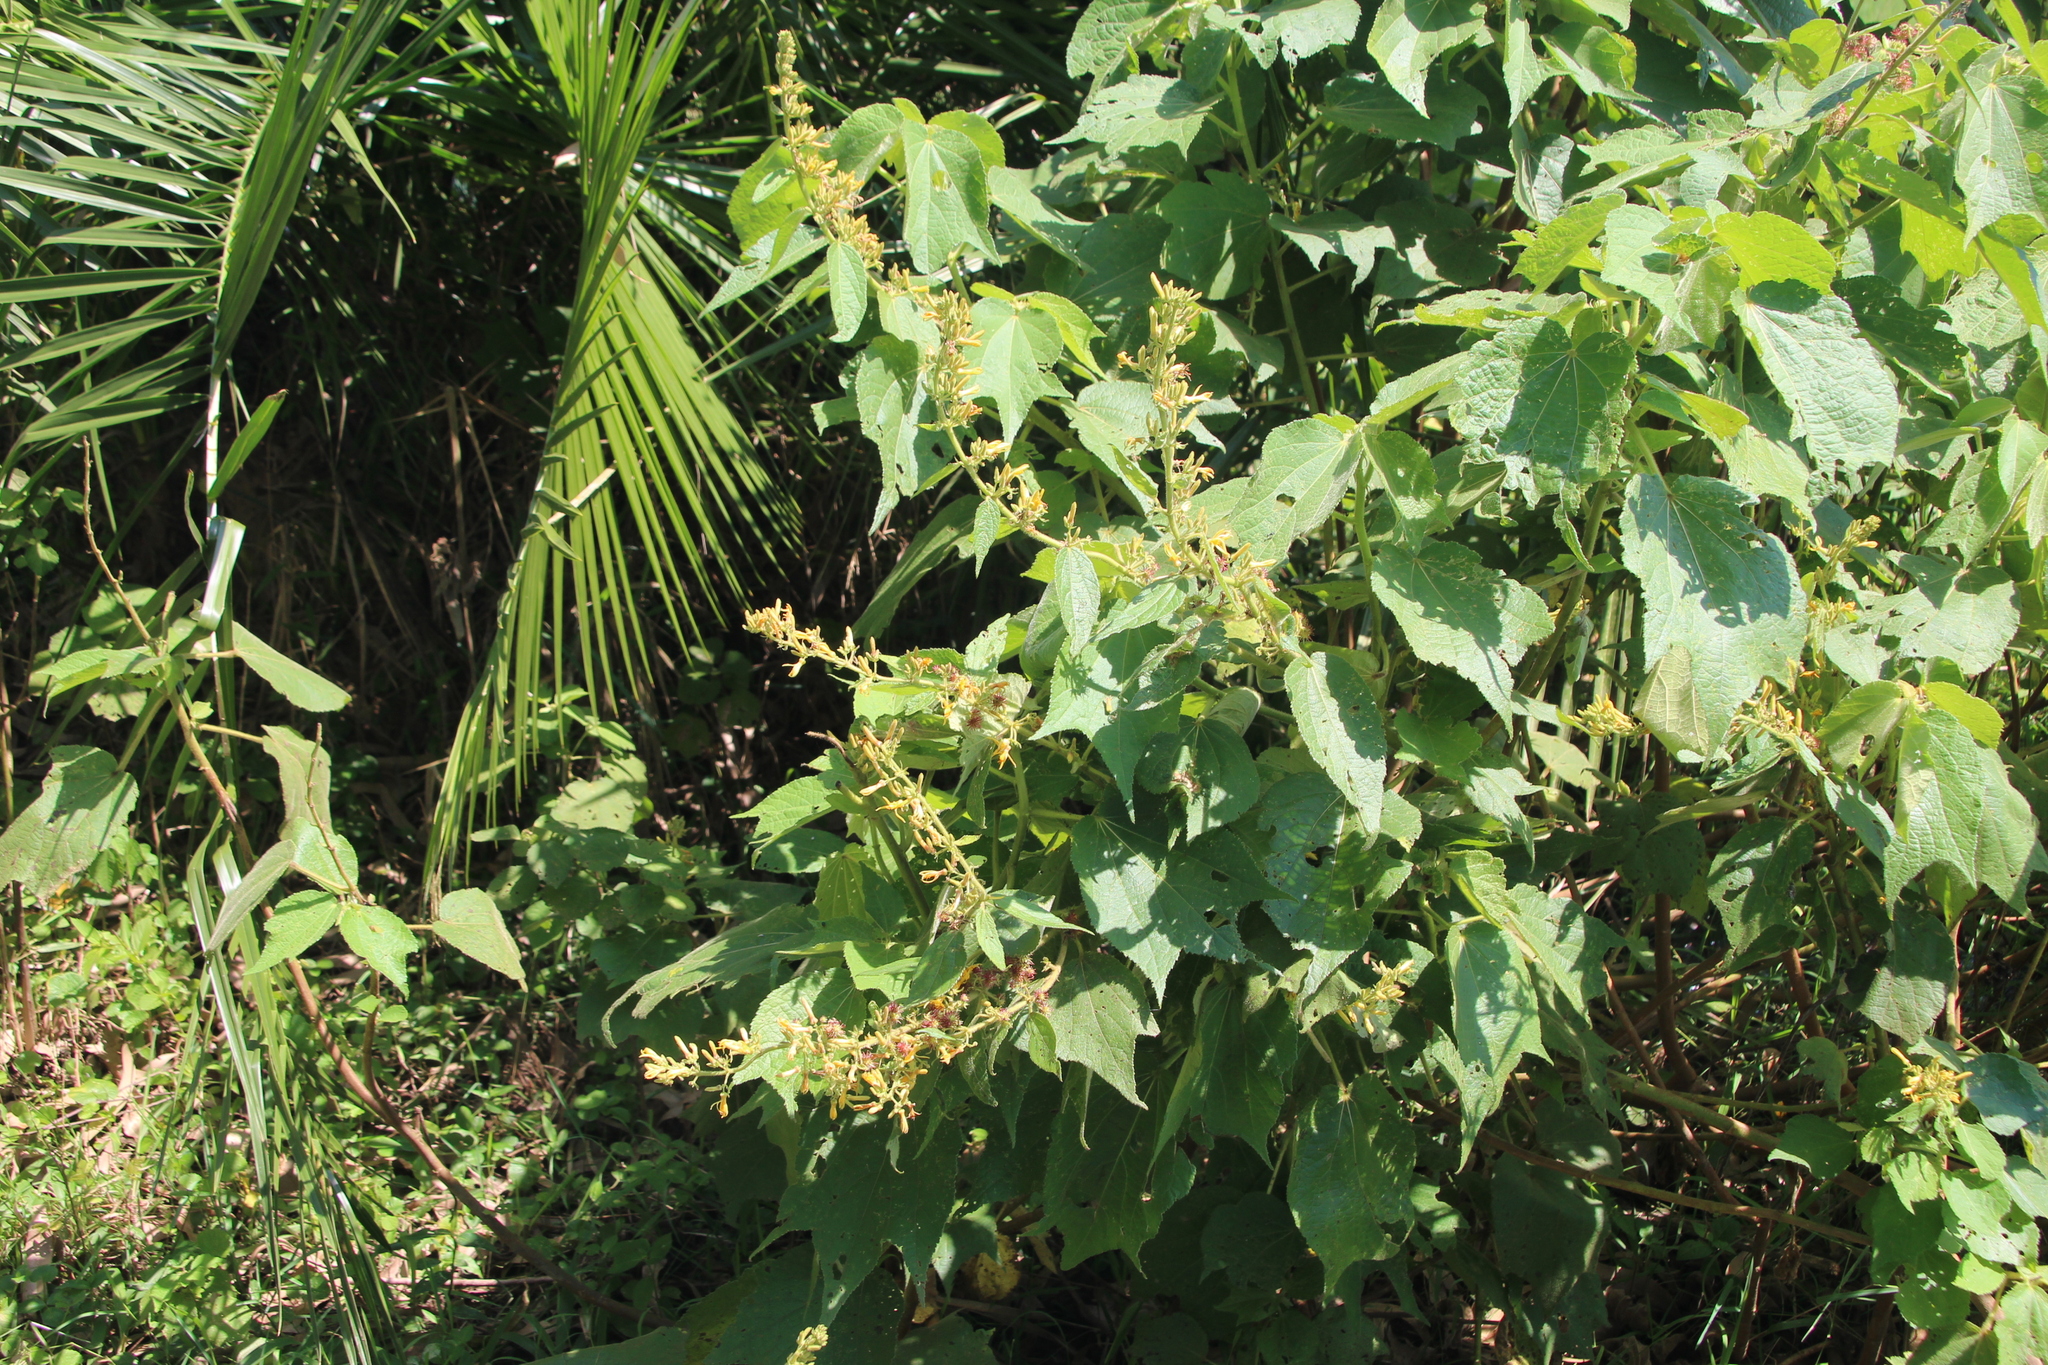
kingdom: Plantae
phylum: Tracheophyta
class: Magnoliopsida
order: Malvales
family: Malvaceae
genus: Triumfetta
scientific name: Triumfetta brachyceras
